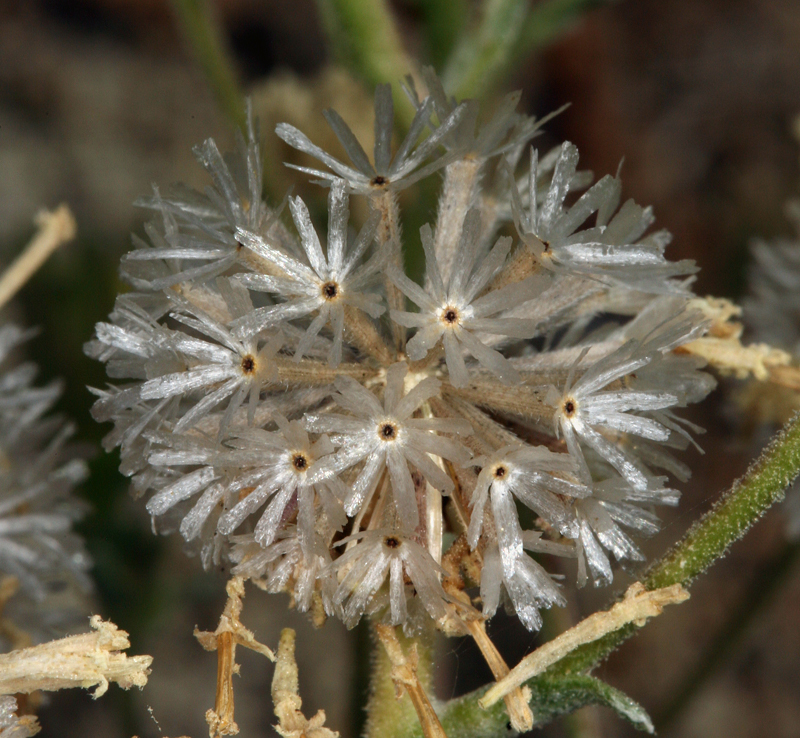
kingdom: Plantae
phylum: Tracheophyta
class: Magnoliopsida
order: Asterales
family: Asteraceae
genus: Chaenactis
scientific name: Chaenactis douglasii
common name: Hoary pincushion
